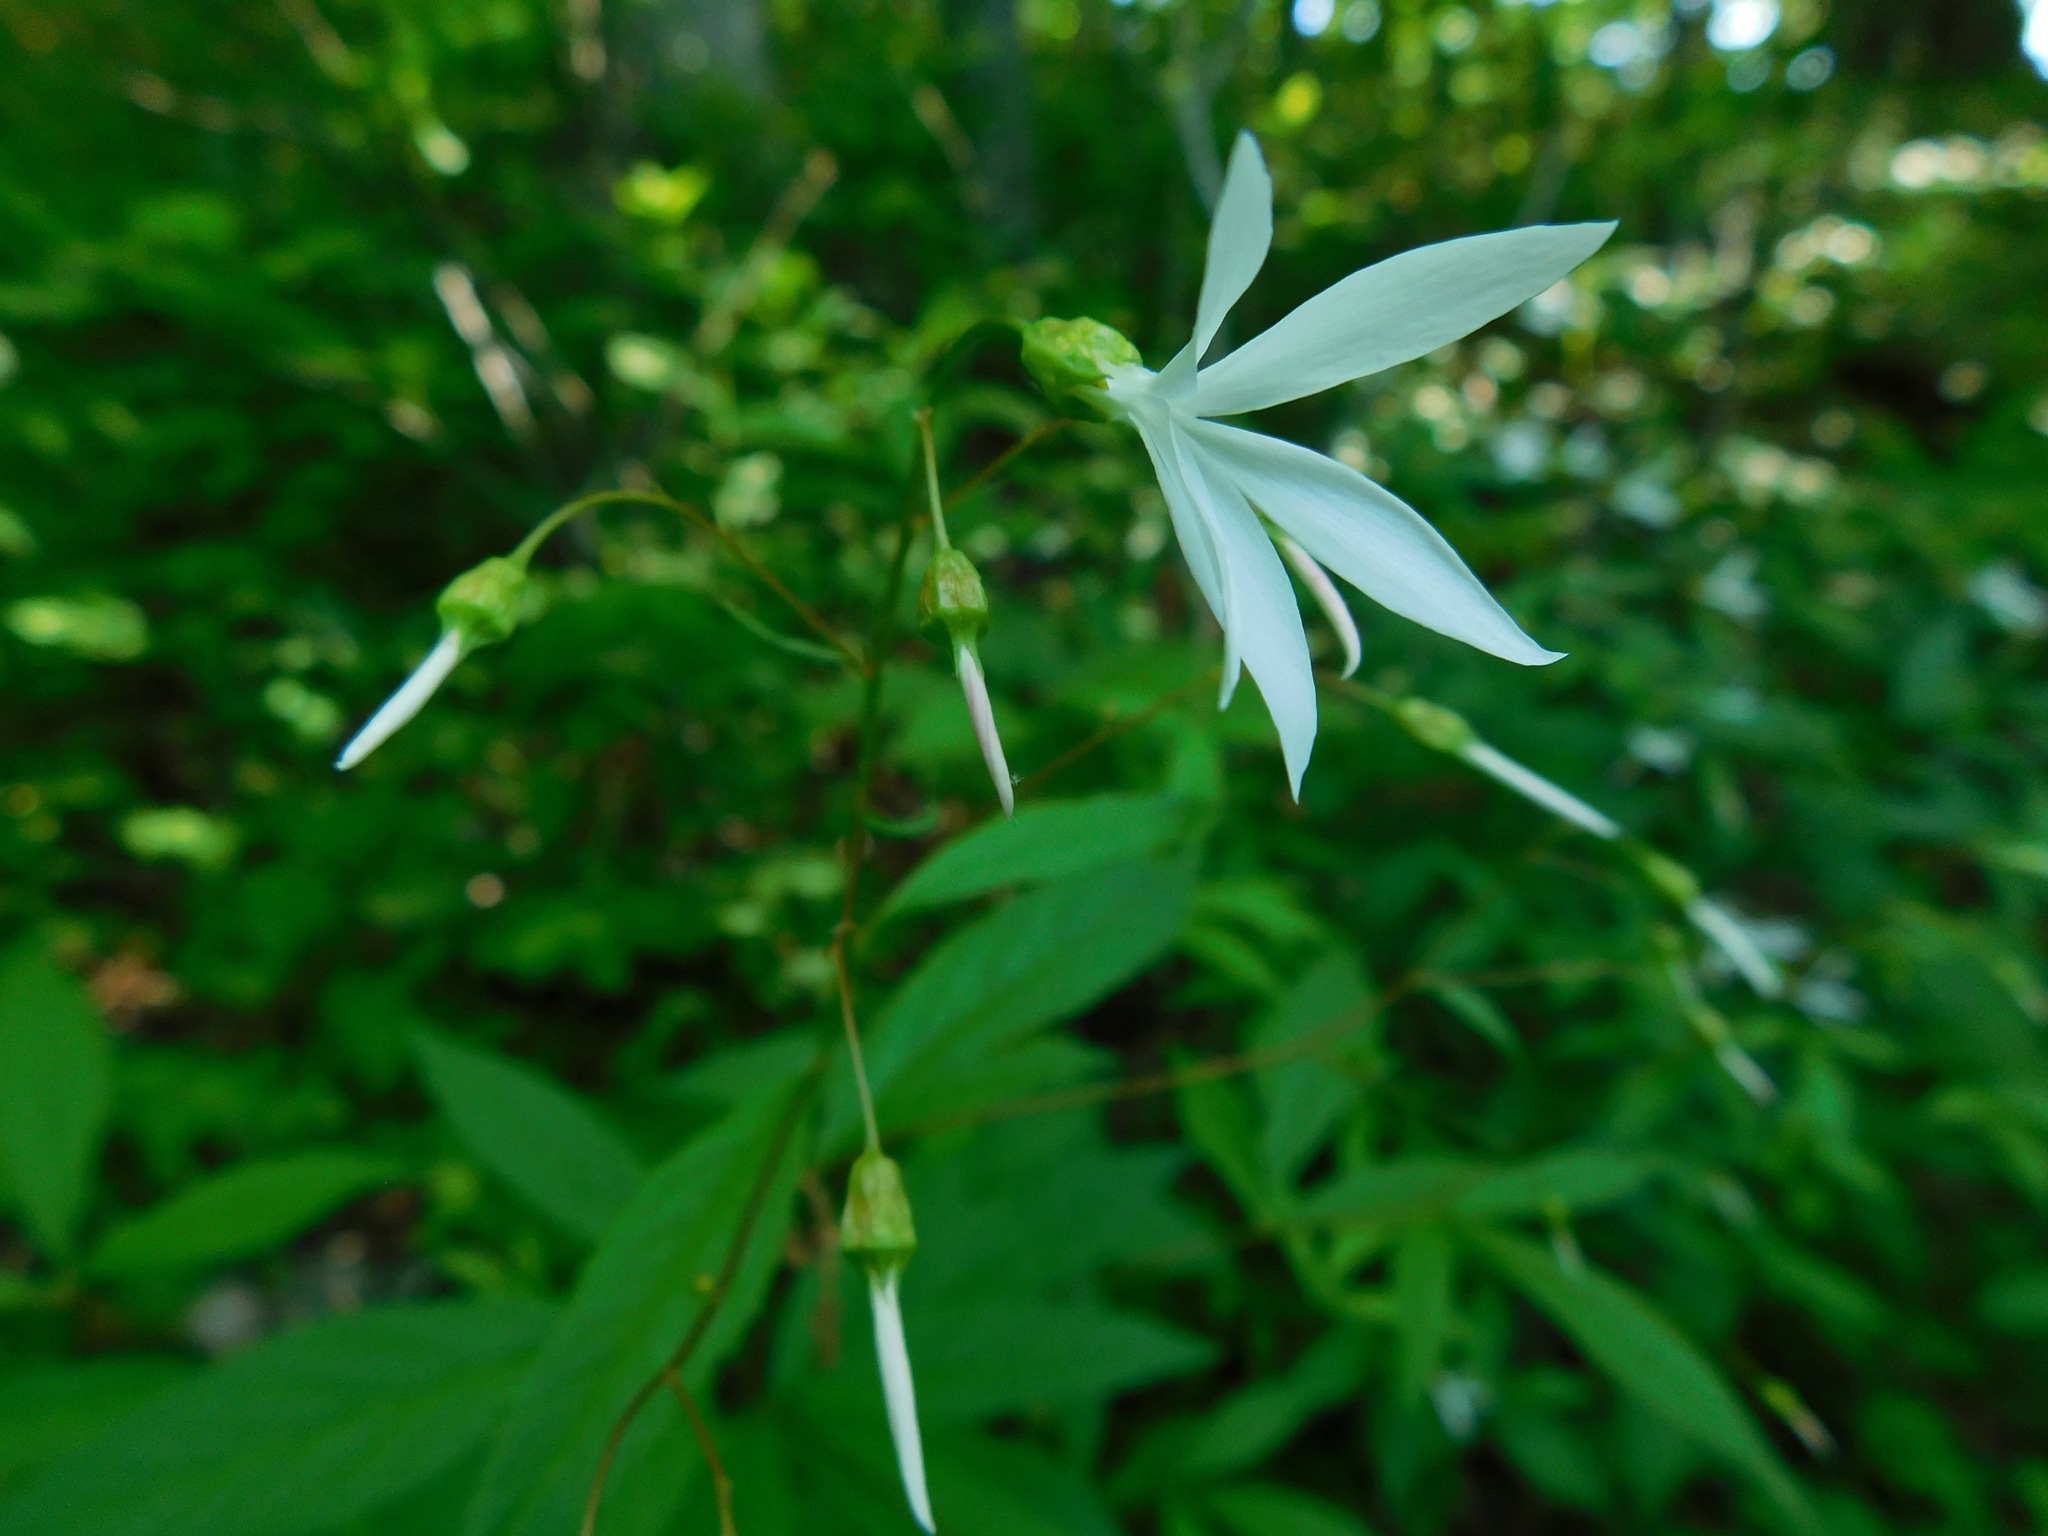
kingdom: Plantae
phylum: Tracheophyta
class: Magnoliopsida
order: Rosales
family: Rosaceae
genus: Gillenia
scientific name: Gillenia trifoliata
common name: Bowman's-root
